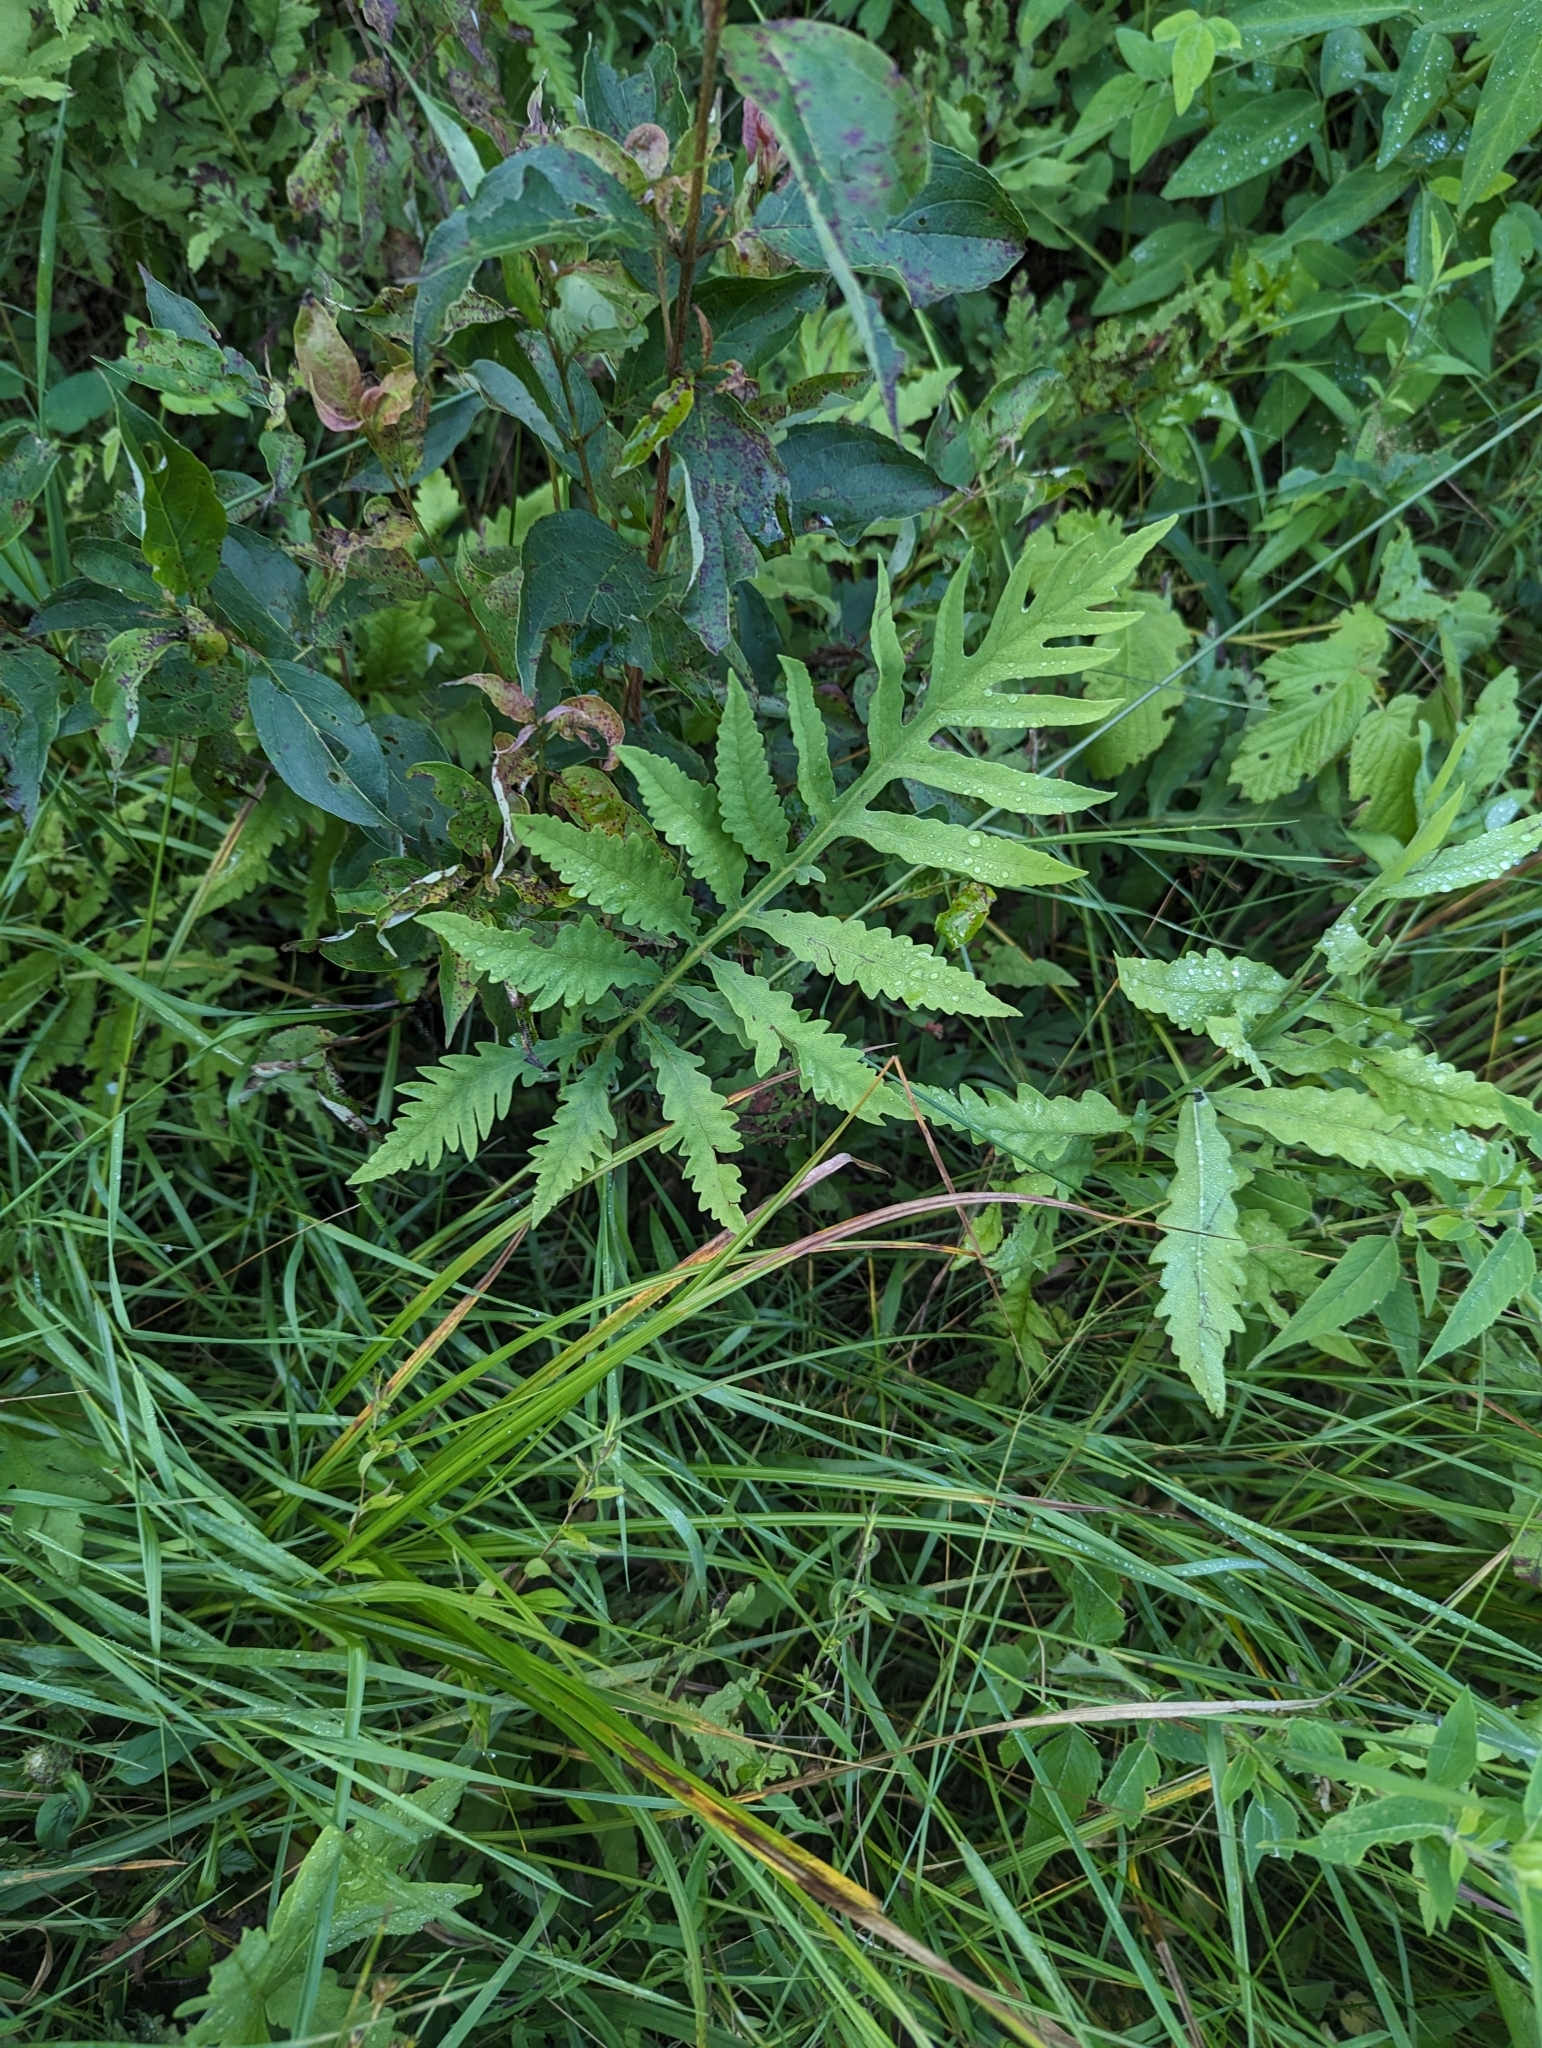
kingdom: Plantae
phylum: Tracheophyta
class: Polypodiopsida
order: Polypodiales
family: Onocleaceae
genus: Onoclea
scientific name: Onoclea sensibilis
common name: Sensitive fern
